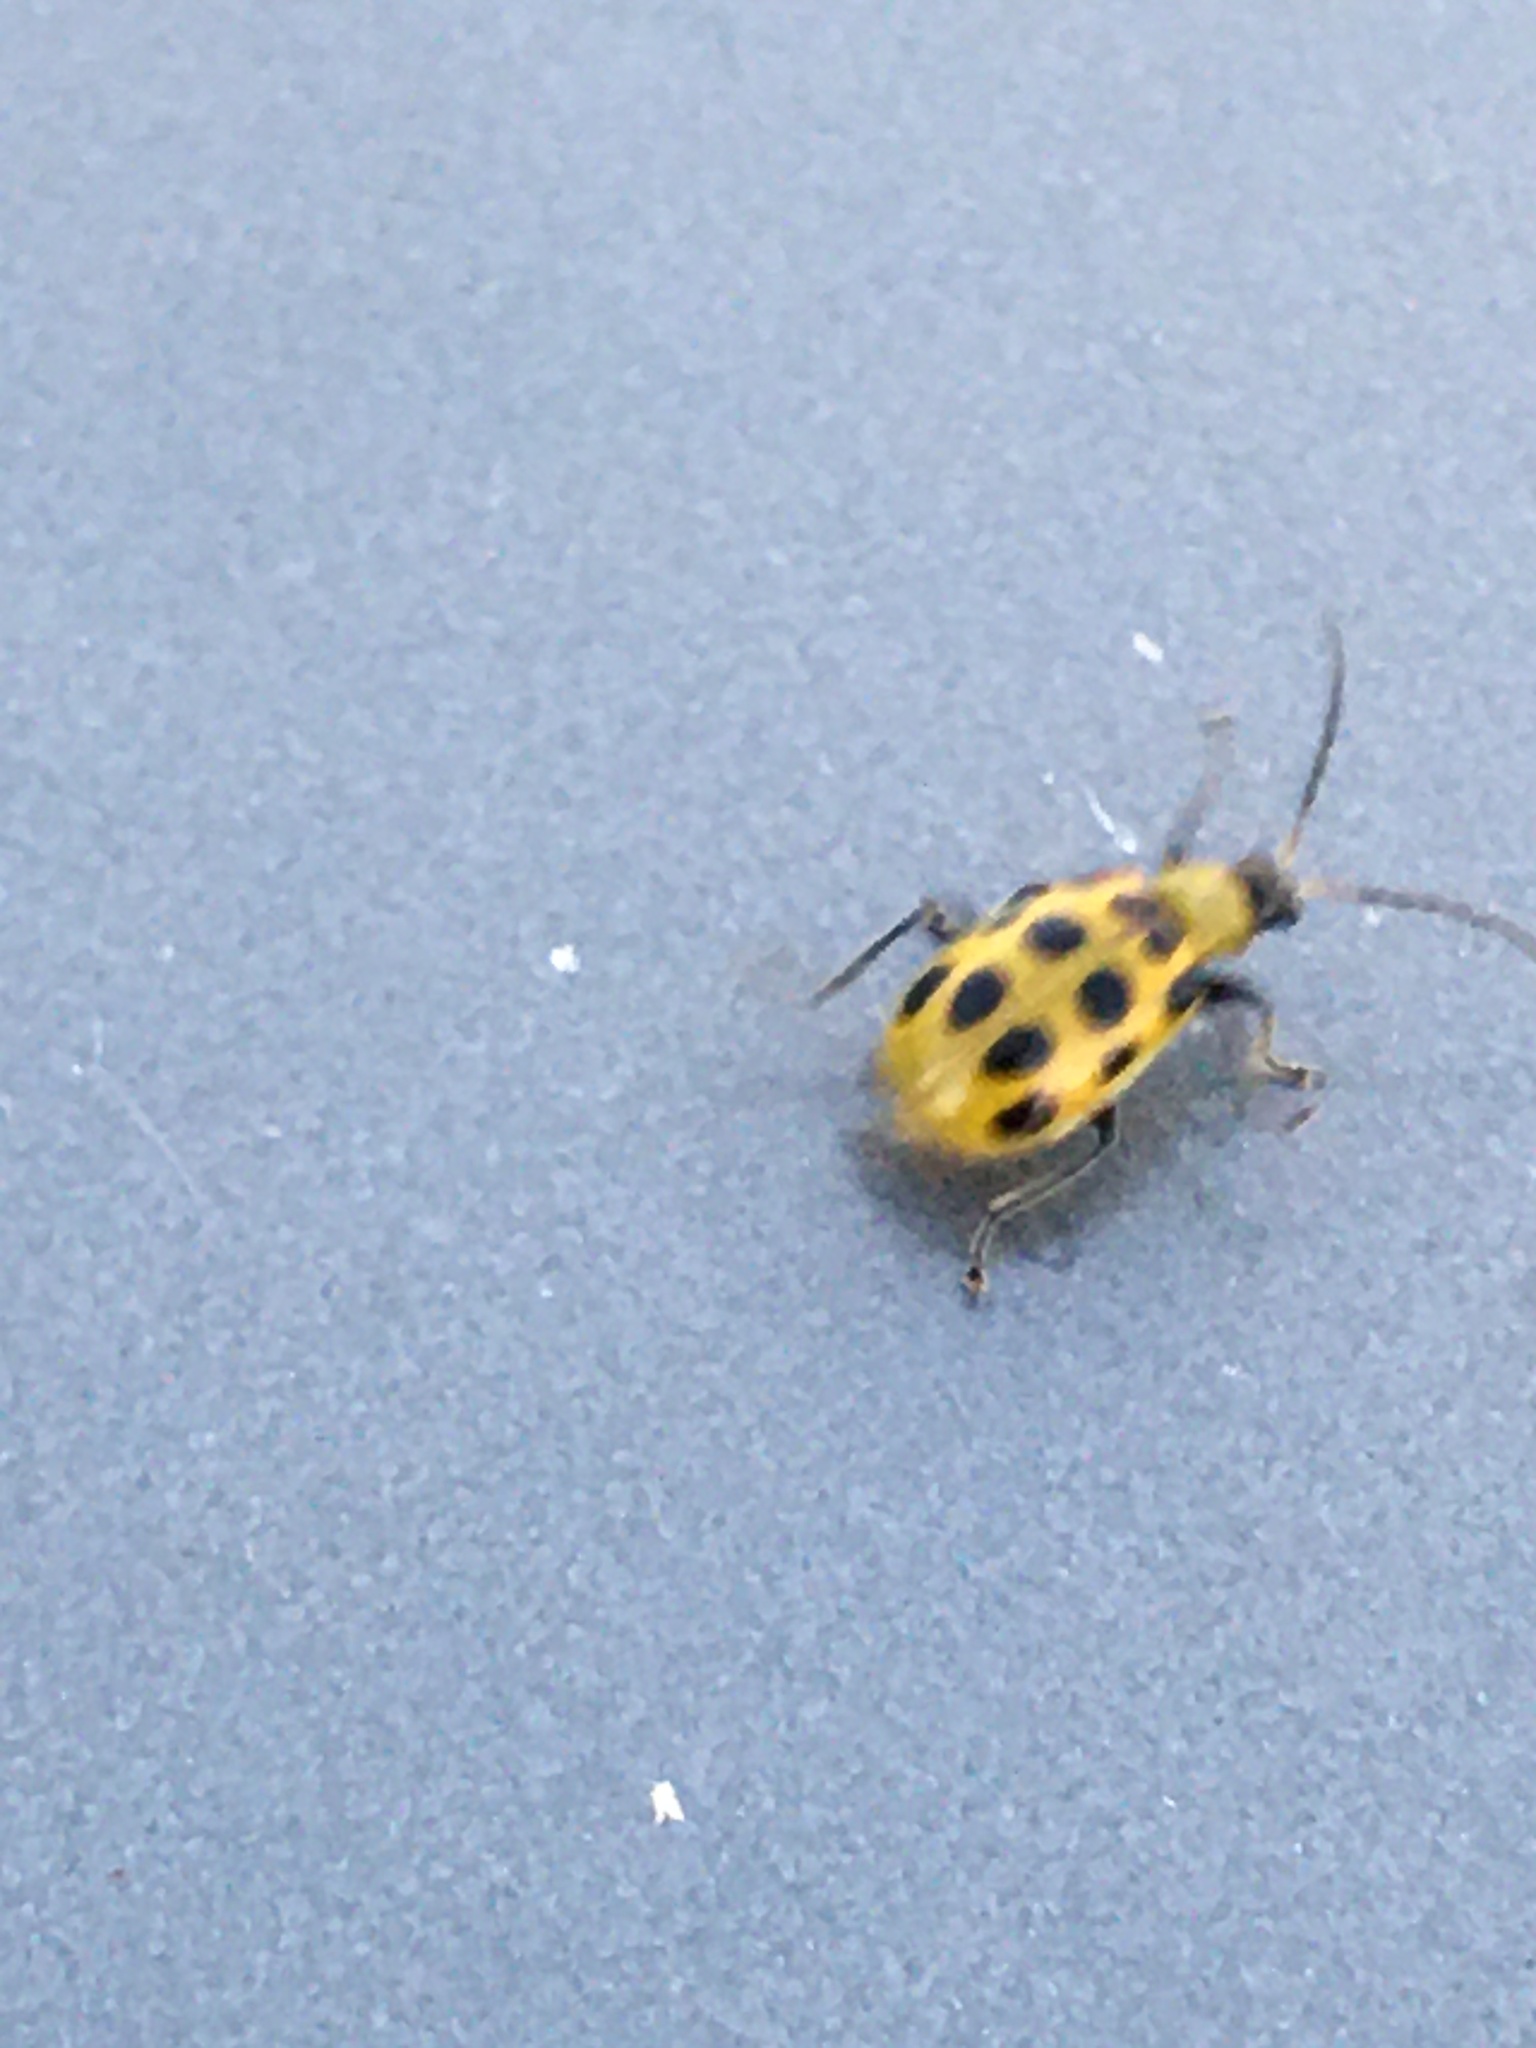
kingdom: Animalia
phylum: Arthropoda
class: Insecta
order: Coleoptera
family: Chrysomelidae
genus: Diabrotica
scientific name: Diabrotica undecimpunctata
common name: Spotted cucumber beetle
